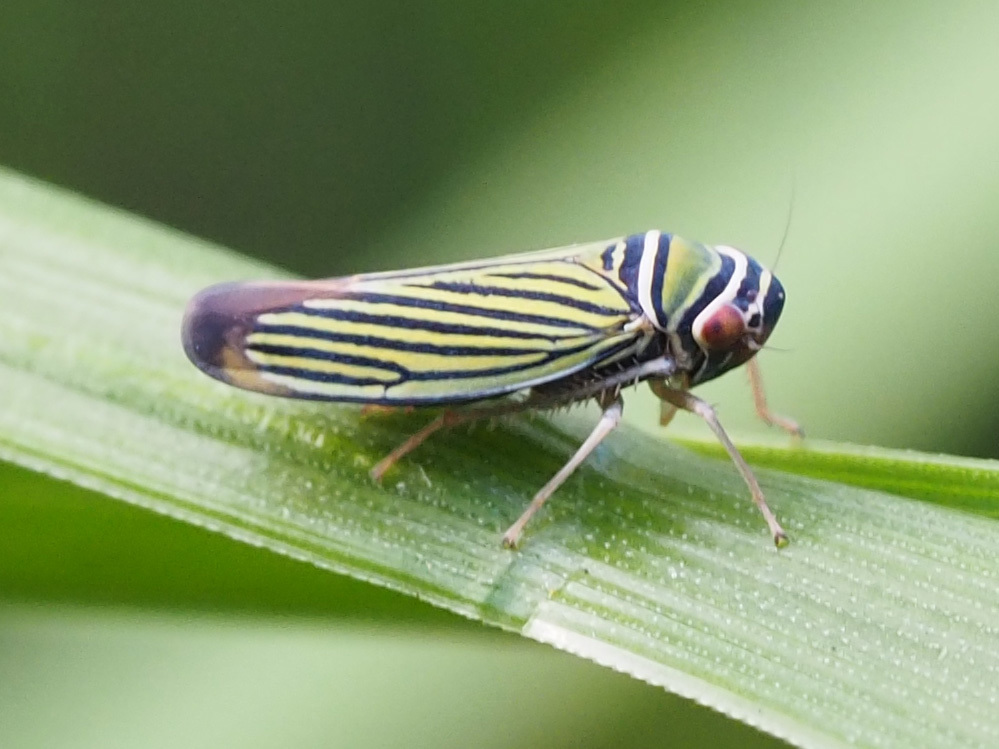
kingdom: Animalia
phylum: Arthropoda
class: Insecta
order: Hemiptera
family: Cicadellidae
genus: Tylozygus
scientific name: Tylozygus bifidus
